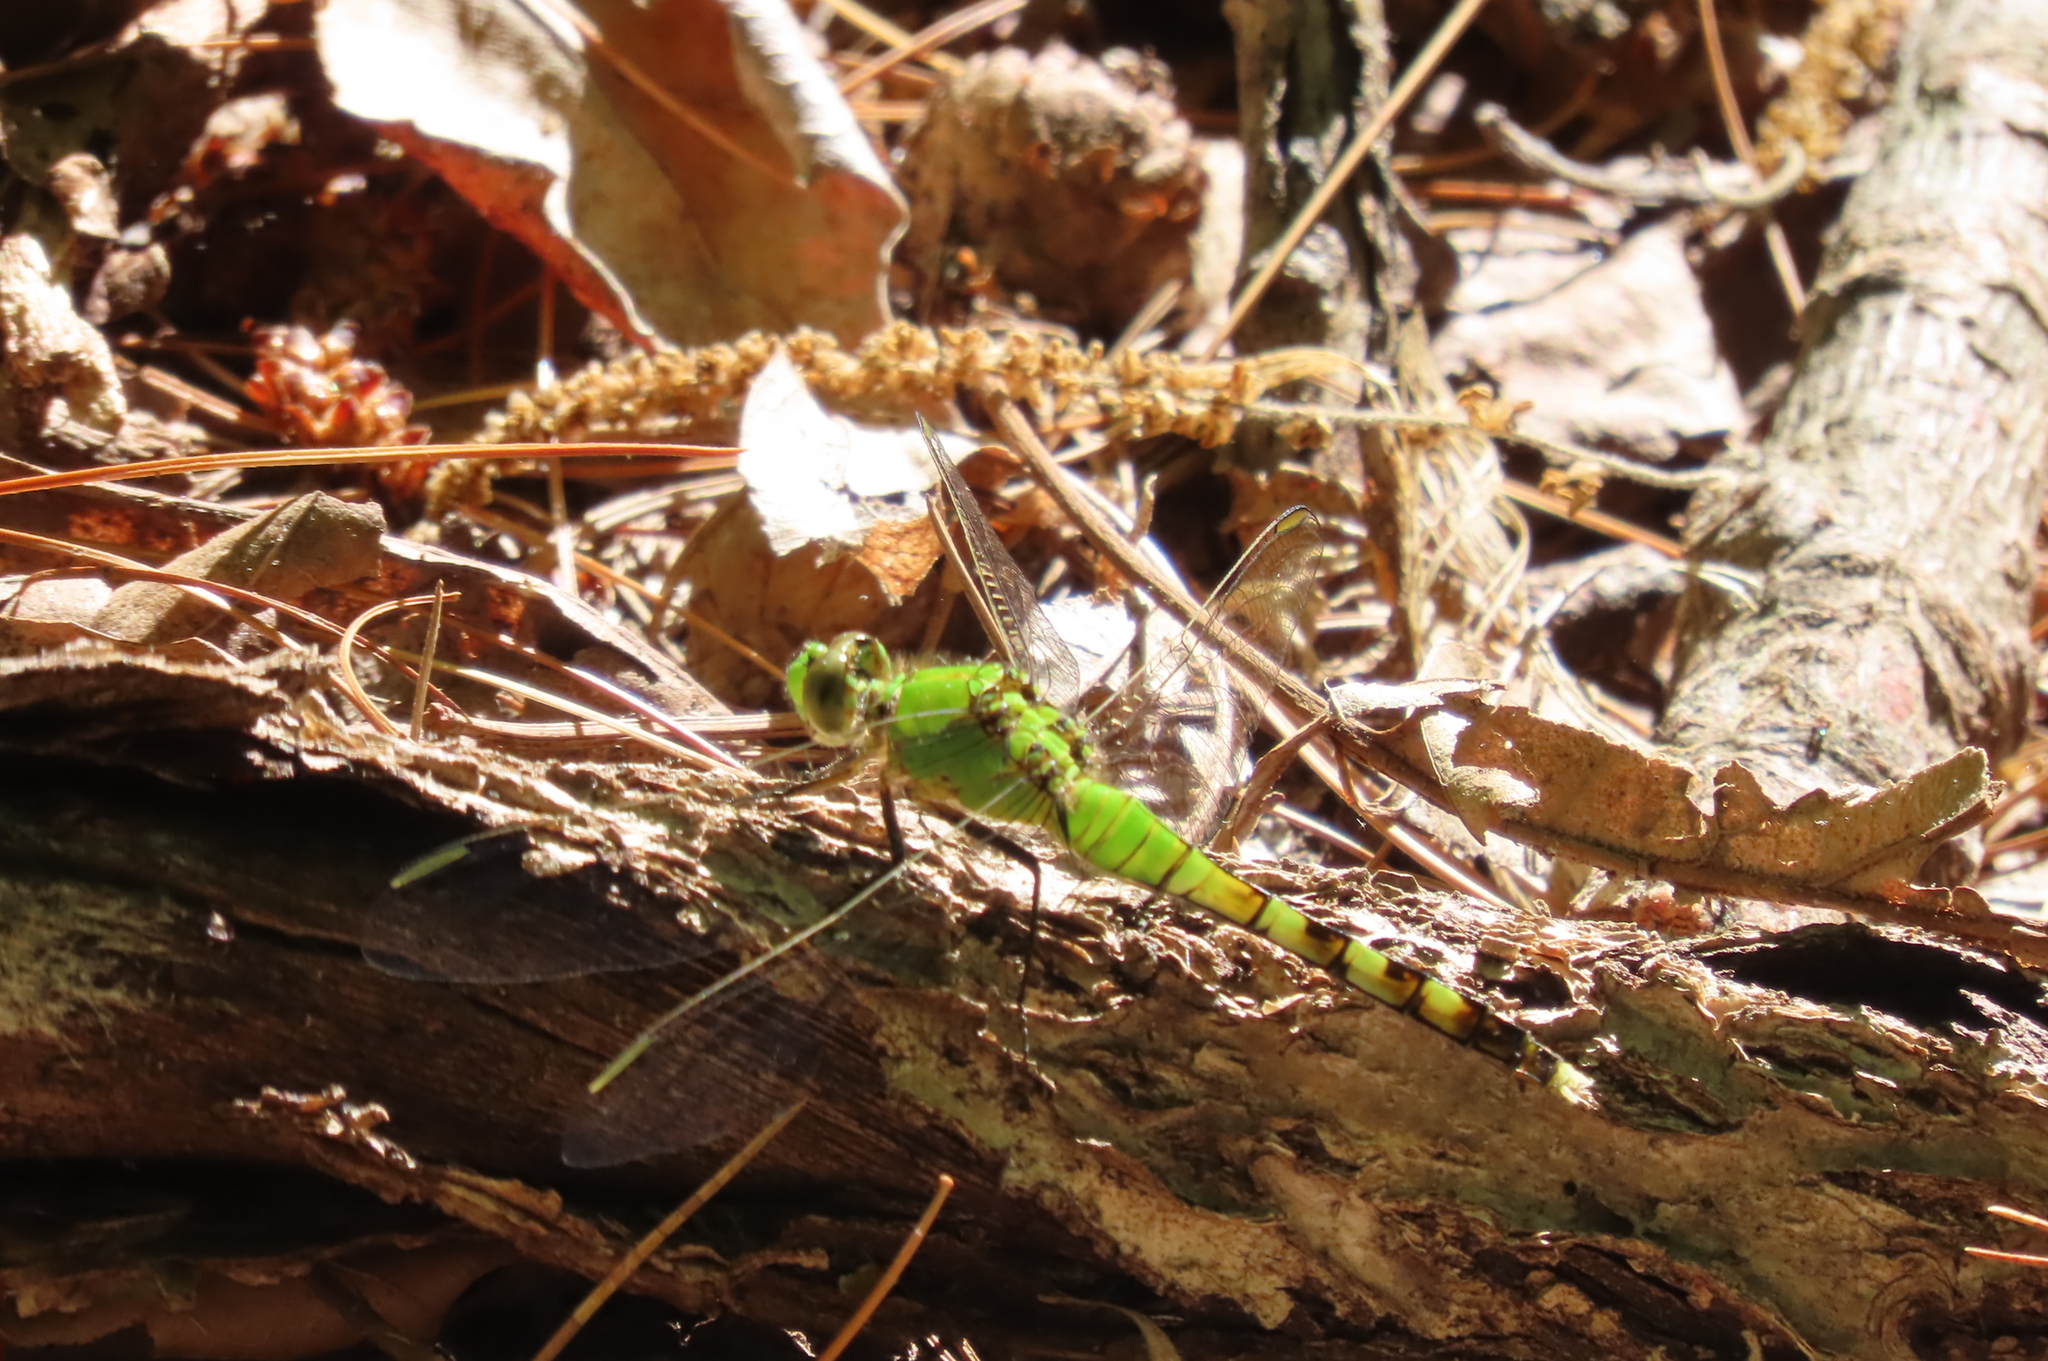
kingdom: Animalia
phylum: Arthropoda
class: Insecta
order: Odonata
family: Libellulidae
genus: Erythemis
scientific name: Erythemis simplicicollis
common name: Eastern pondhawk
